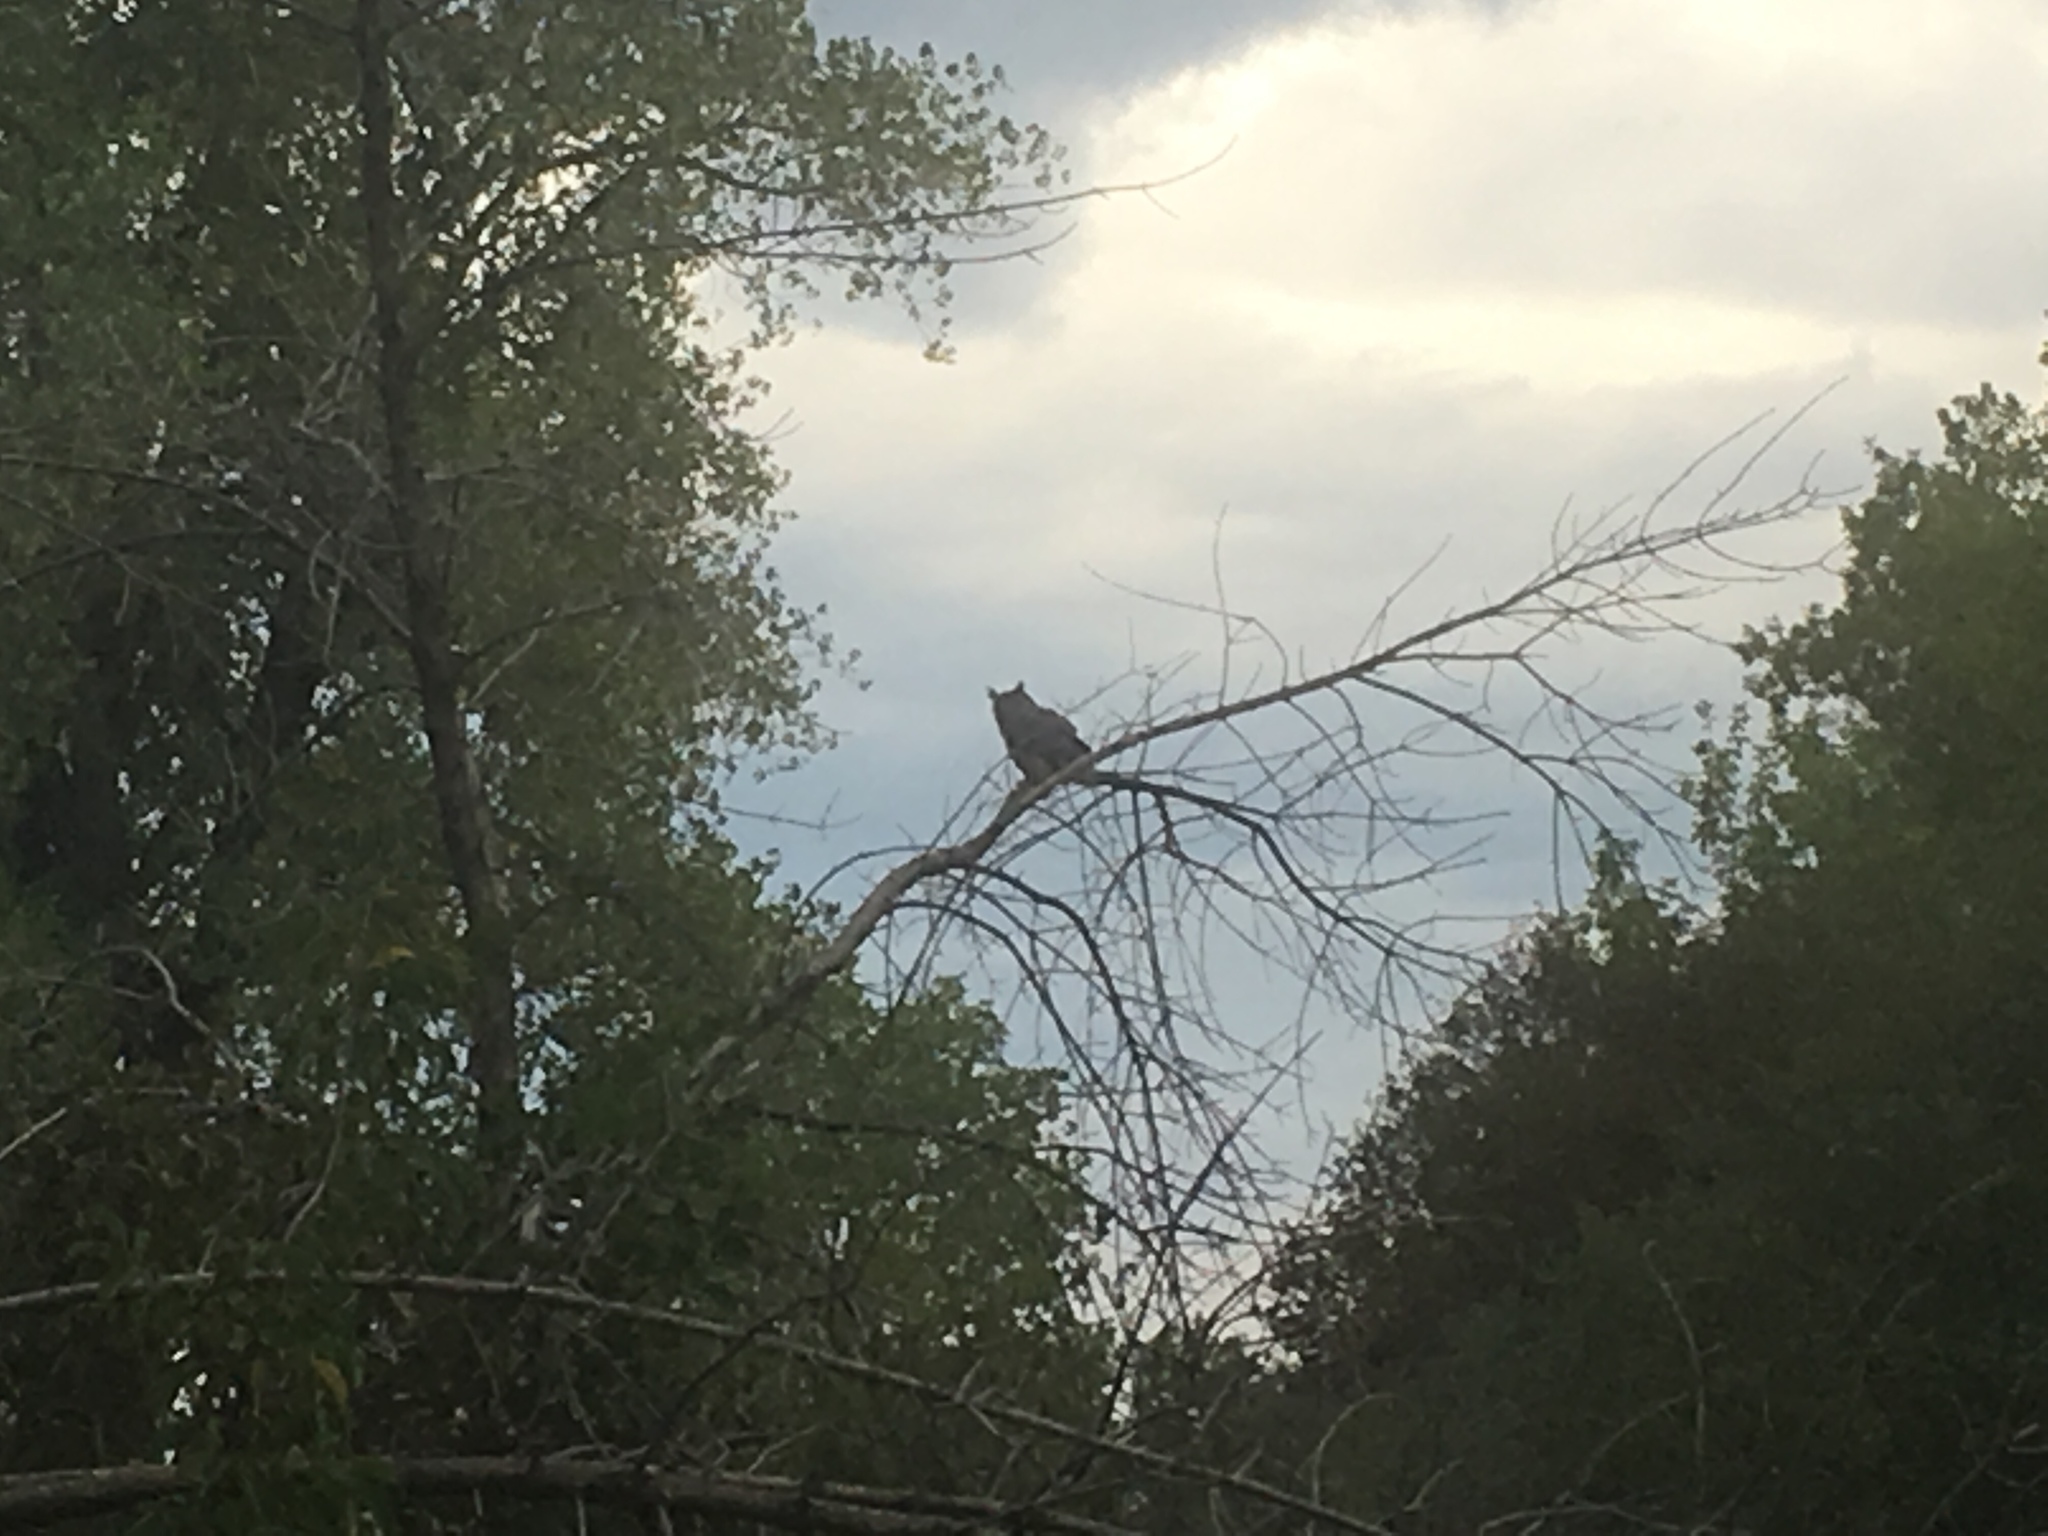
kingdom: Animalia
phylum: Chordata
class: Aves
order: Strigiformes
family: Strigidae
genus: Bubo
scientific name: Bubo virginianus
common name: Great horned owl
